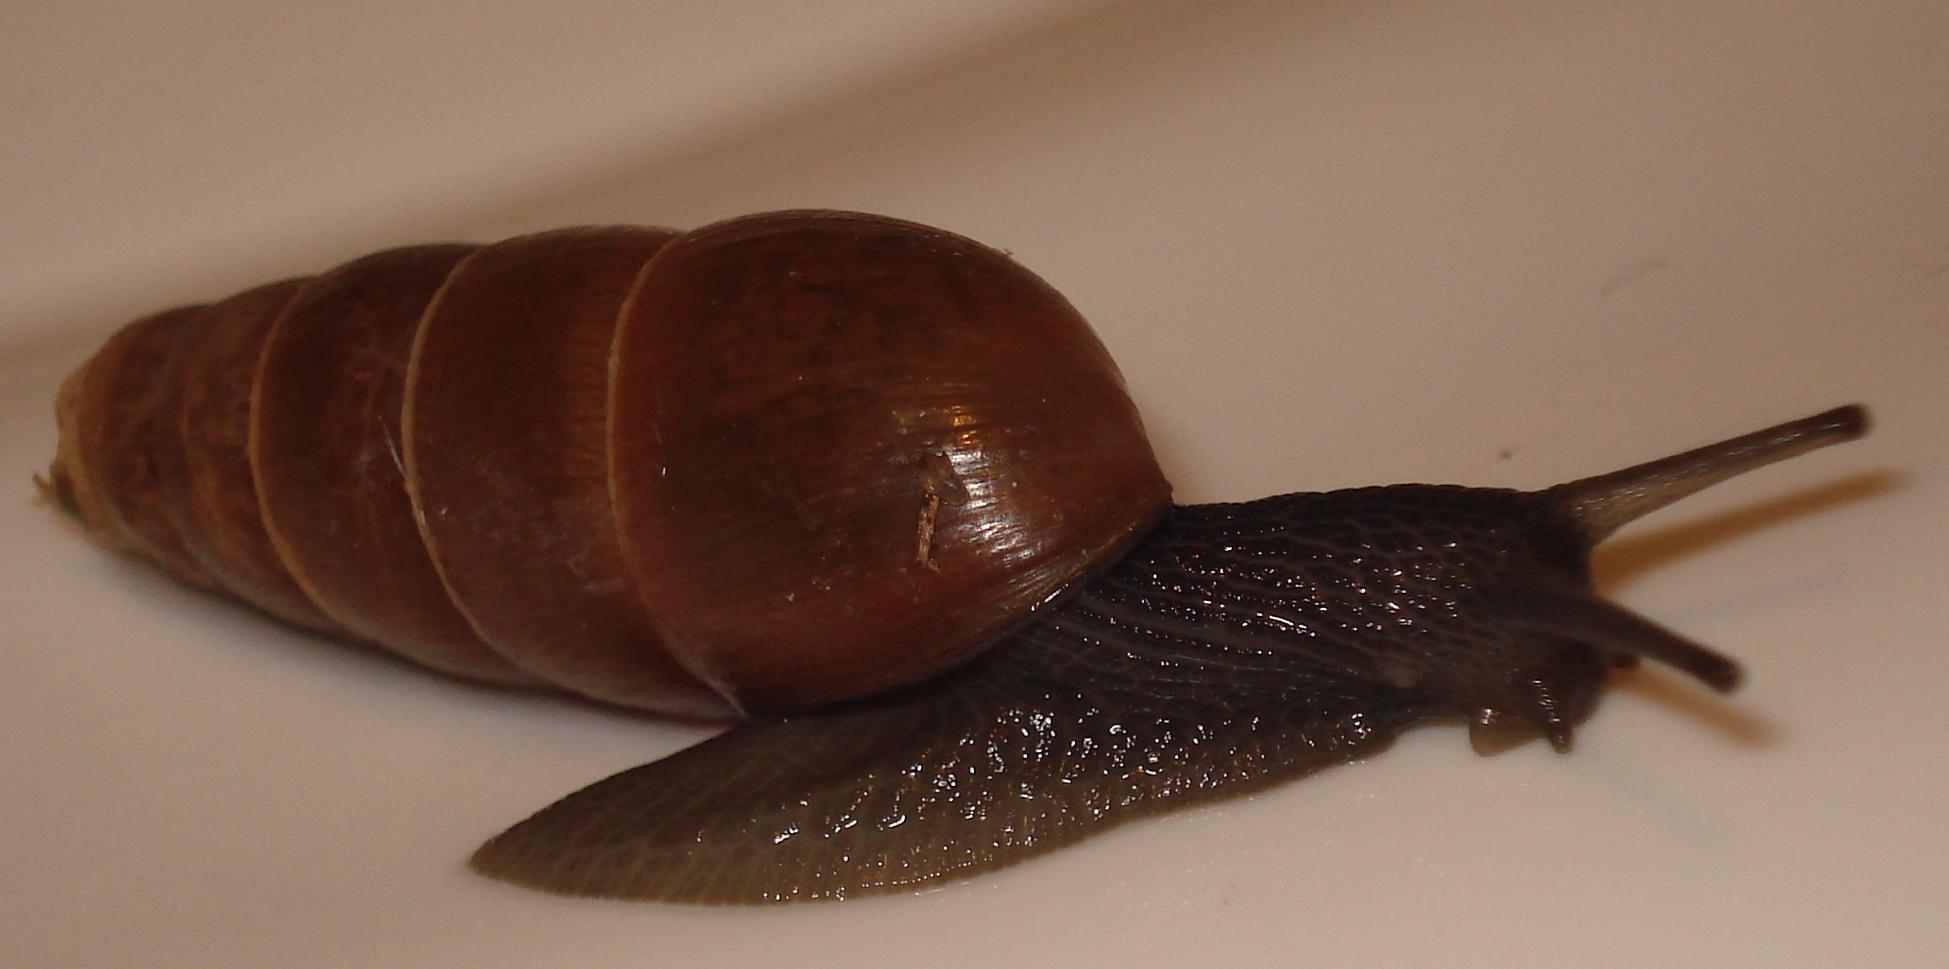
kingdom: Animalia
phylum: Mollusca
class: Gastropoda
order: Stylommatophora
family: Achatinidae
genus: Rumina
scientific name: Rumina decollata
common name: Decollate snail
